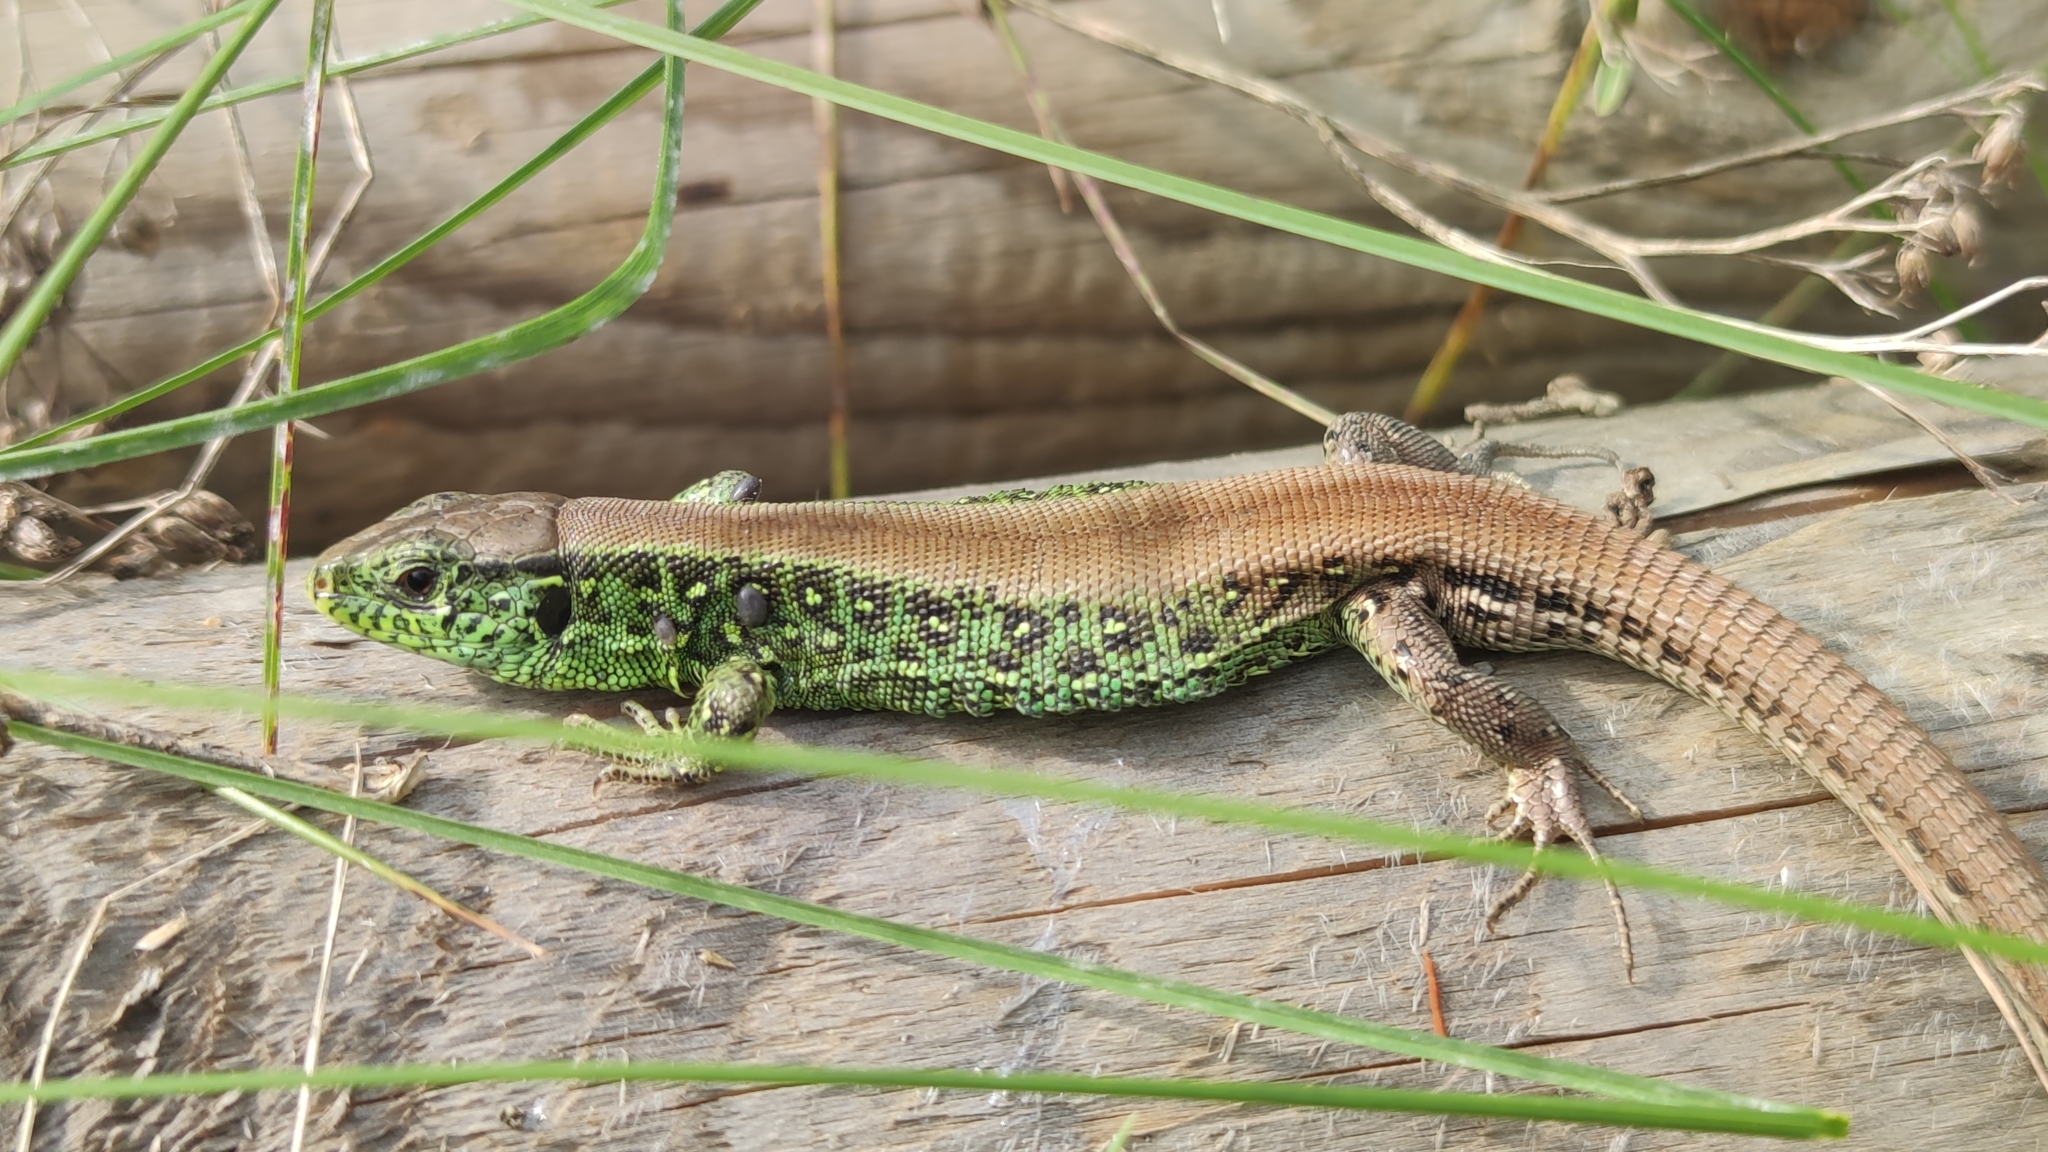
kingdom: Animalia
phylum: Chordata
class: Squamata
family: Lacertidae
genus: Lacerta
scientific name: Lacerta agilis
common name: Sand lizard
